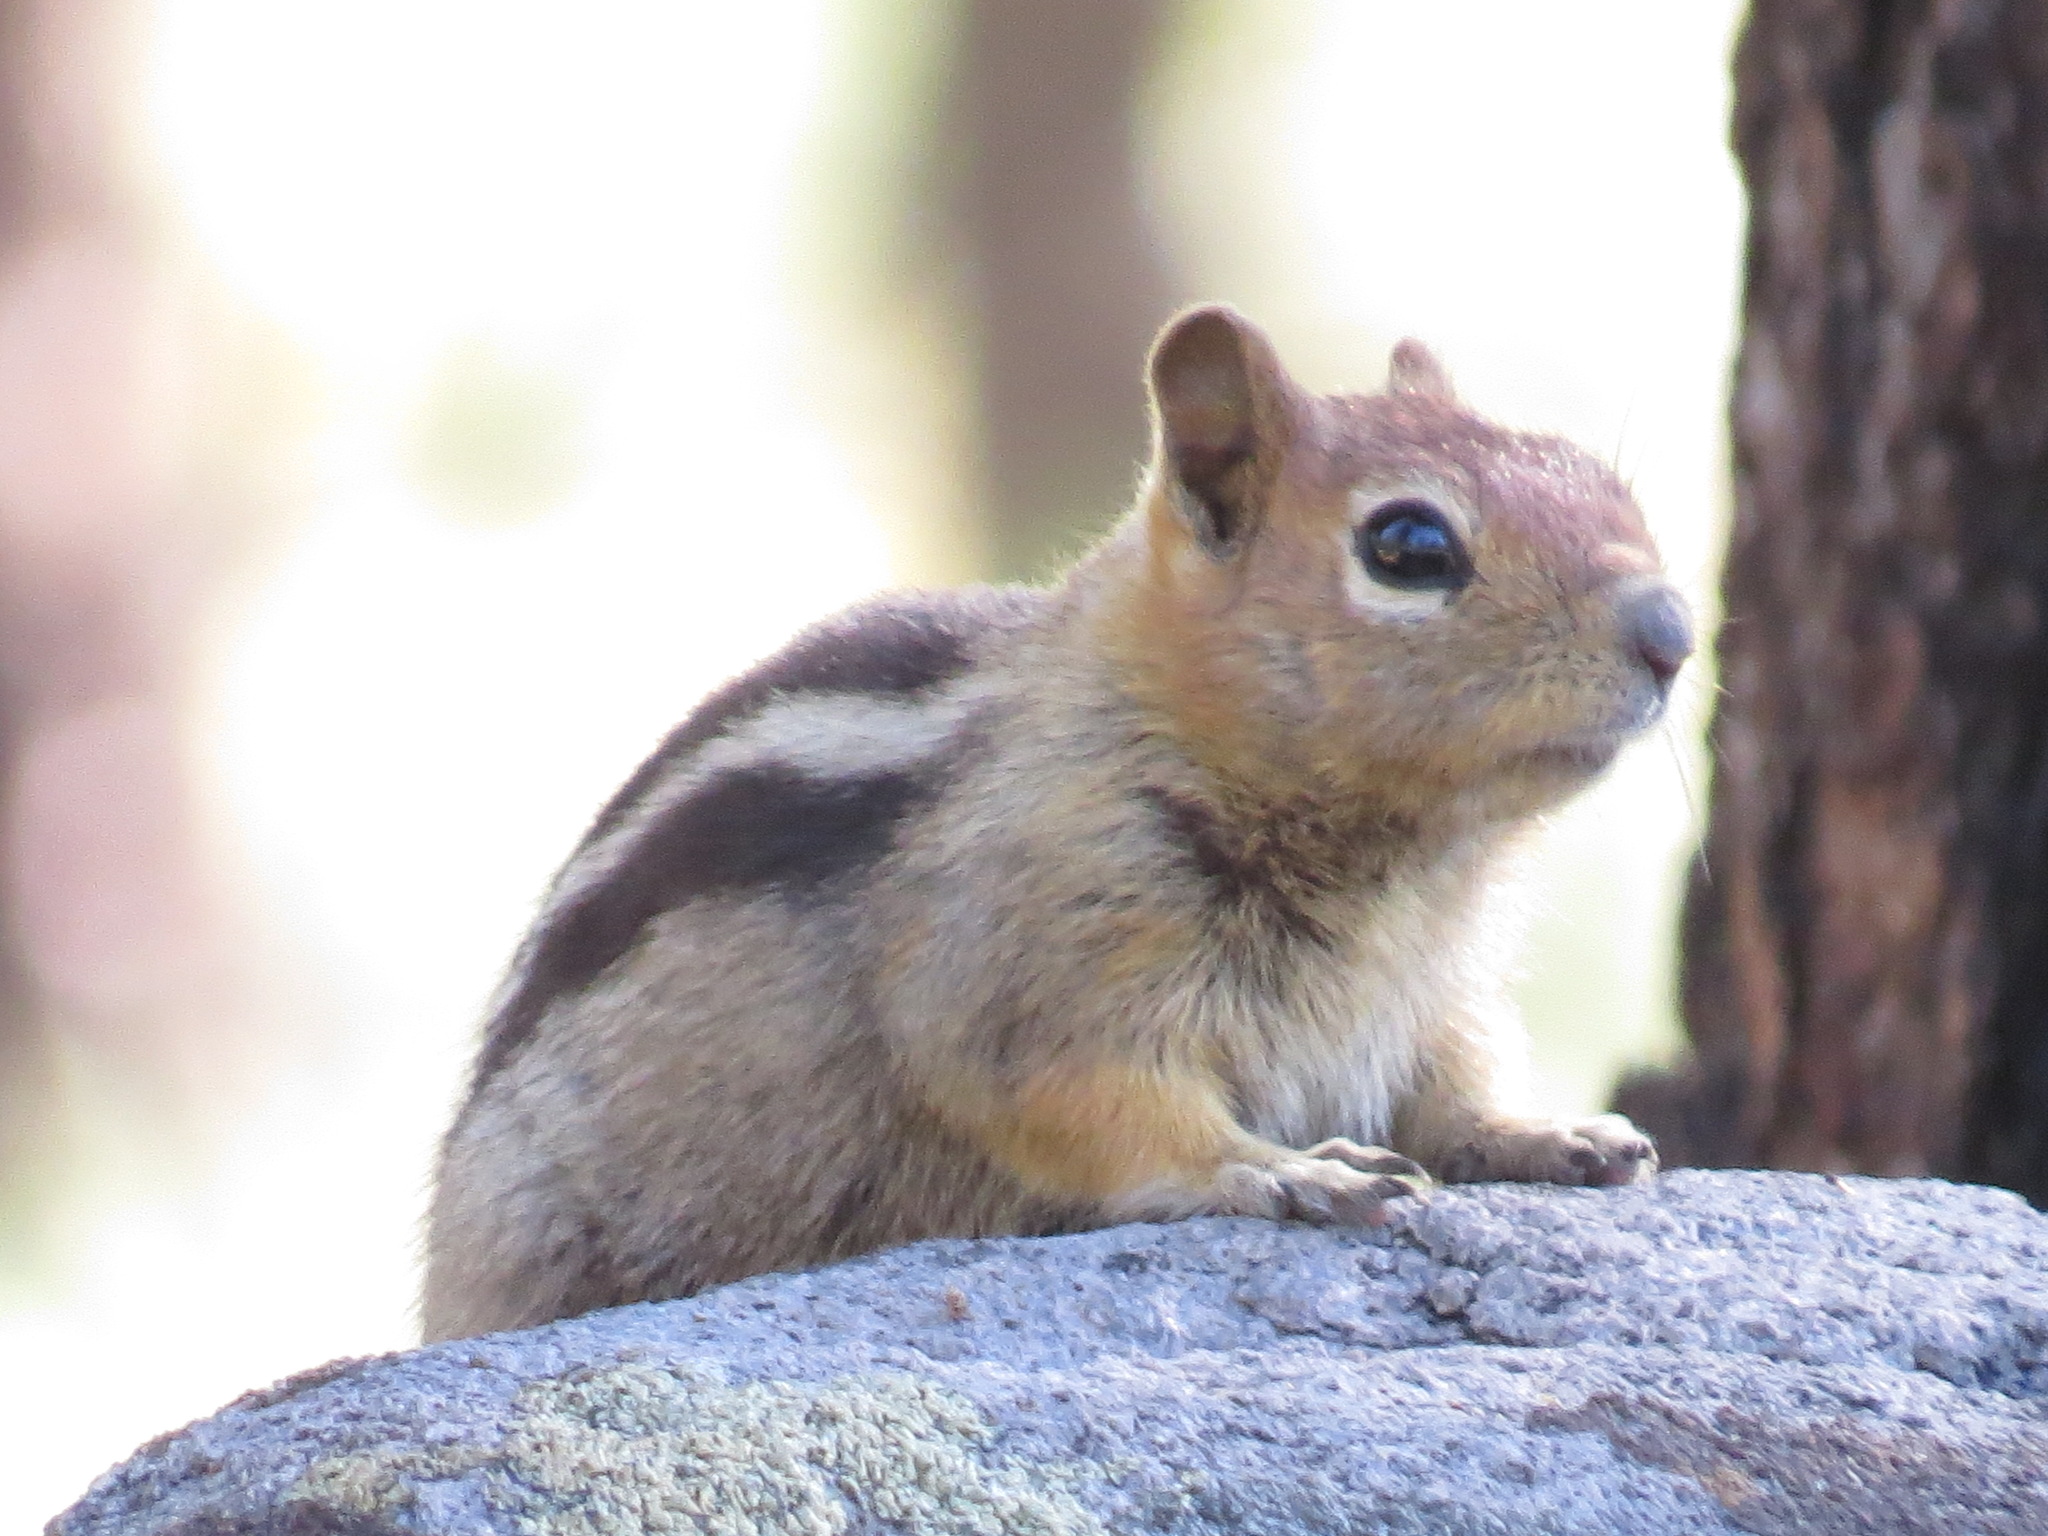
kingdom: Animalia
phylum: Chordata
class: Mammalia
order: Rodentia
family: Sciuridae
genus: Callospermophilus
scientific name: Callospermophilus lateralis
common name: Golden-mantled ground squirrel
